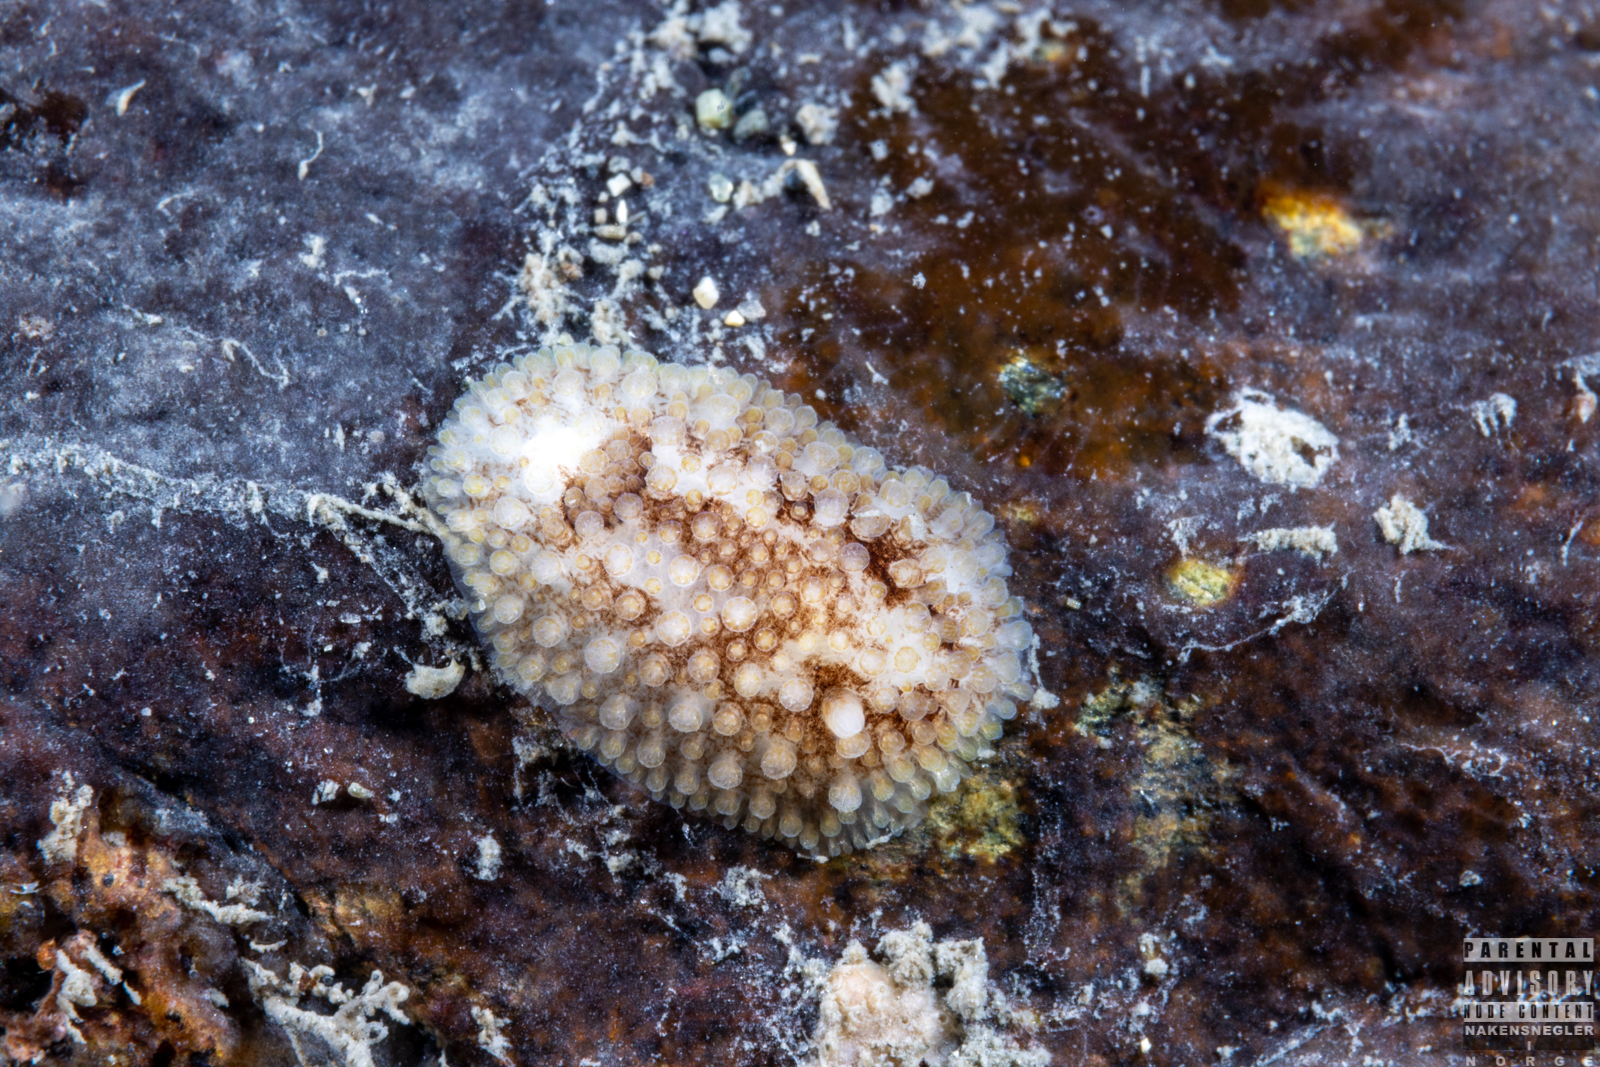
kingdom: Animalia
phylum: Mollusca
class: Gastropoda
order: Nudibranchia
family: Onchidorididae
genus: Onchidoris
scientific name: Onchidoris bilamellata
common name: Barnacle-eating onchidoris
